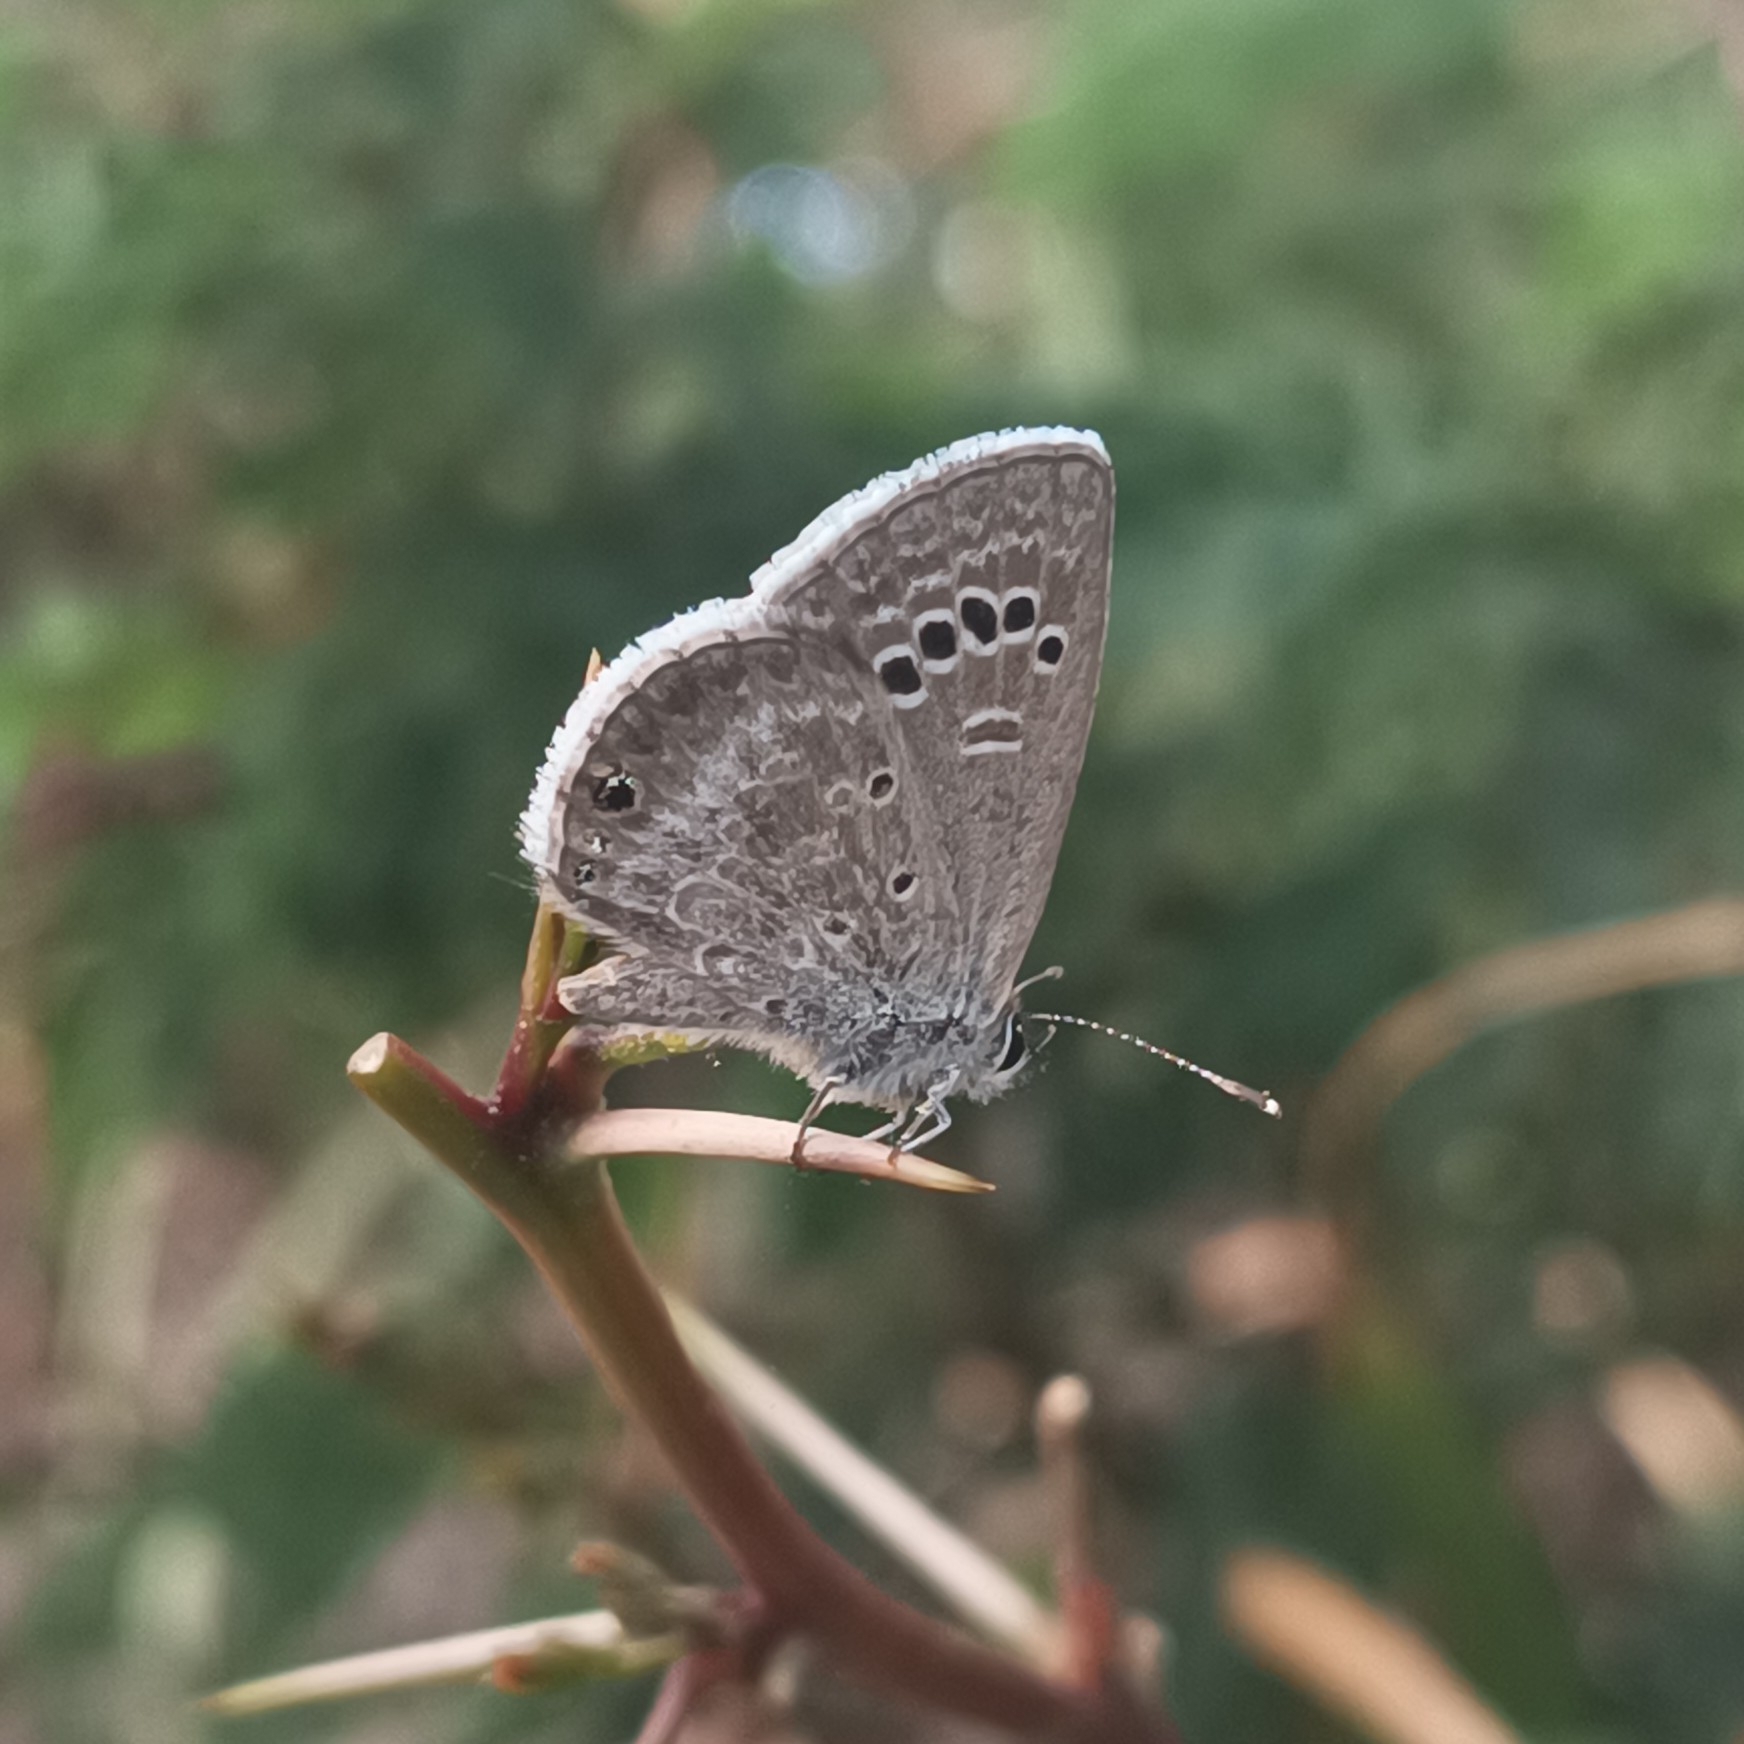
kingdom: Animalia
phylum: Arthropoda
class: Insecta
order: Lepidoptera
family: Lycaenidae
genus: Echinargus
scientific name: Echinargus isola
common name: Reakirt's blue
